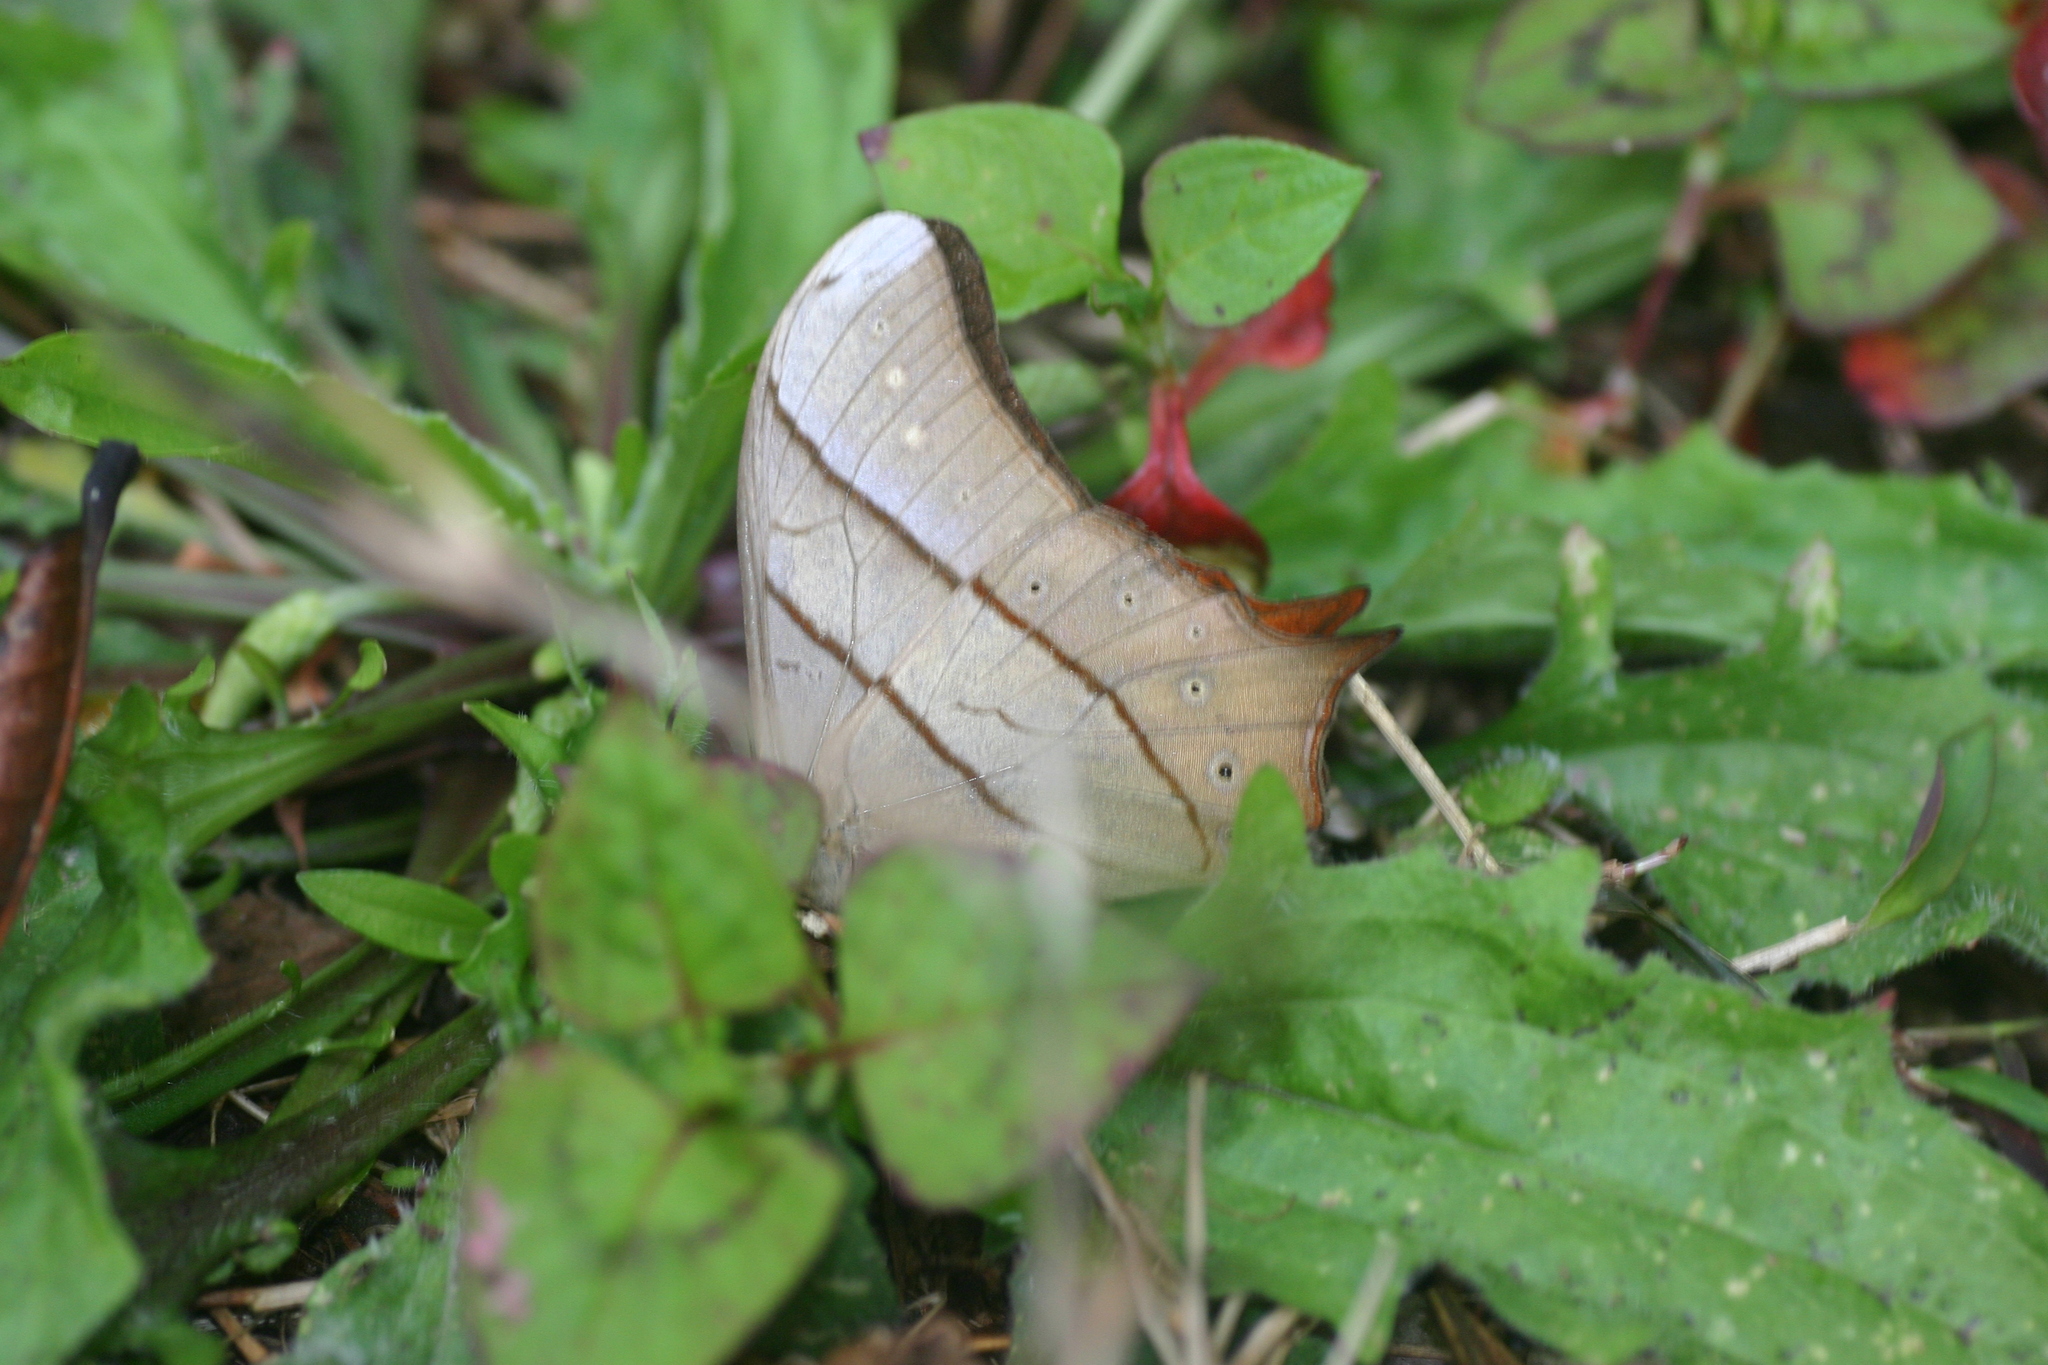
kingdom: Animalia
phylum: Arthropoda
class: Insecta
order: Lepidoptera
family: Nymphalidae
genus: Lethe
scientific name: Lethe kansa
